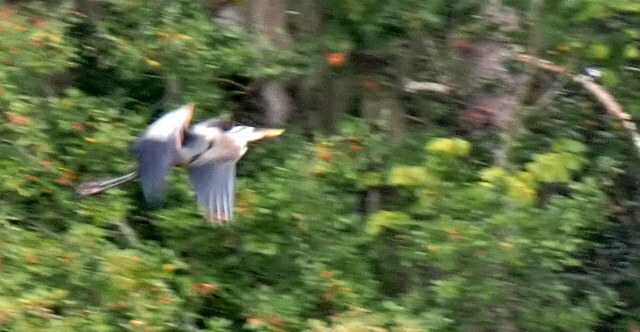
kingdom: Animalia
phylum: Chordata
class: Aves
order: Pelecaniformes
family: Ardeidae
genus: Ardea
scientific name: Ardea herodias
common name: Great blue heron
